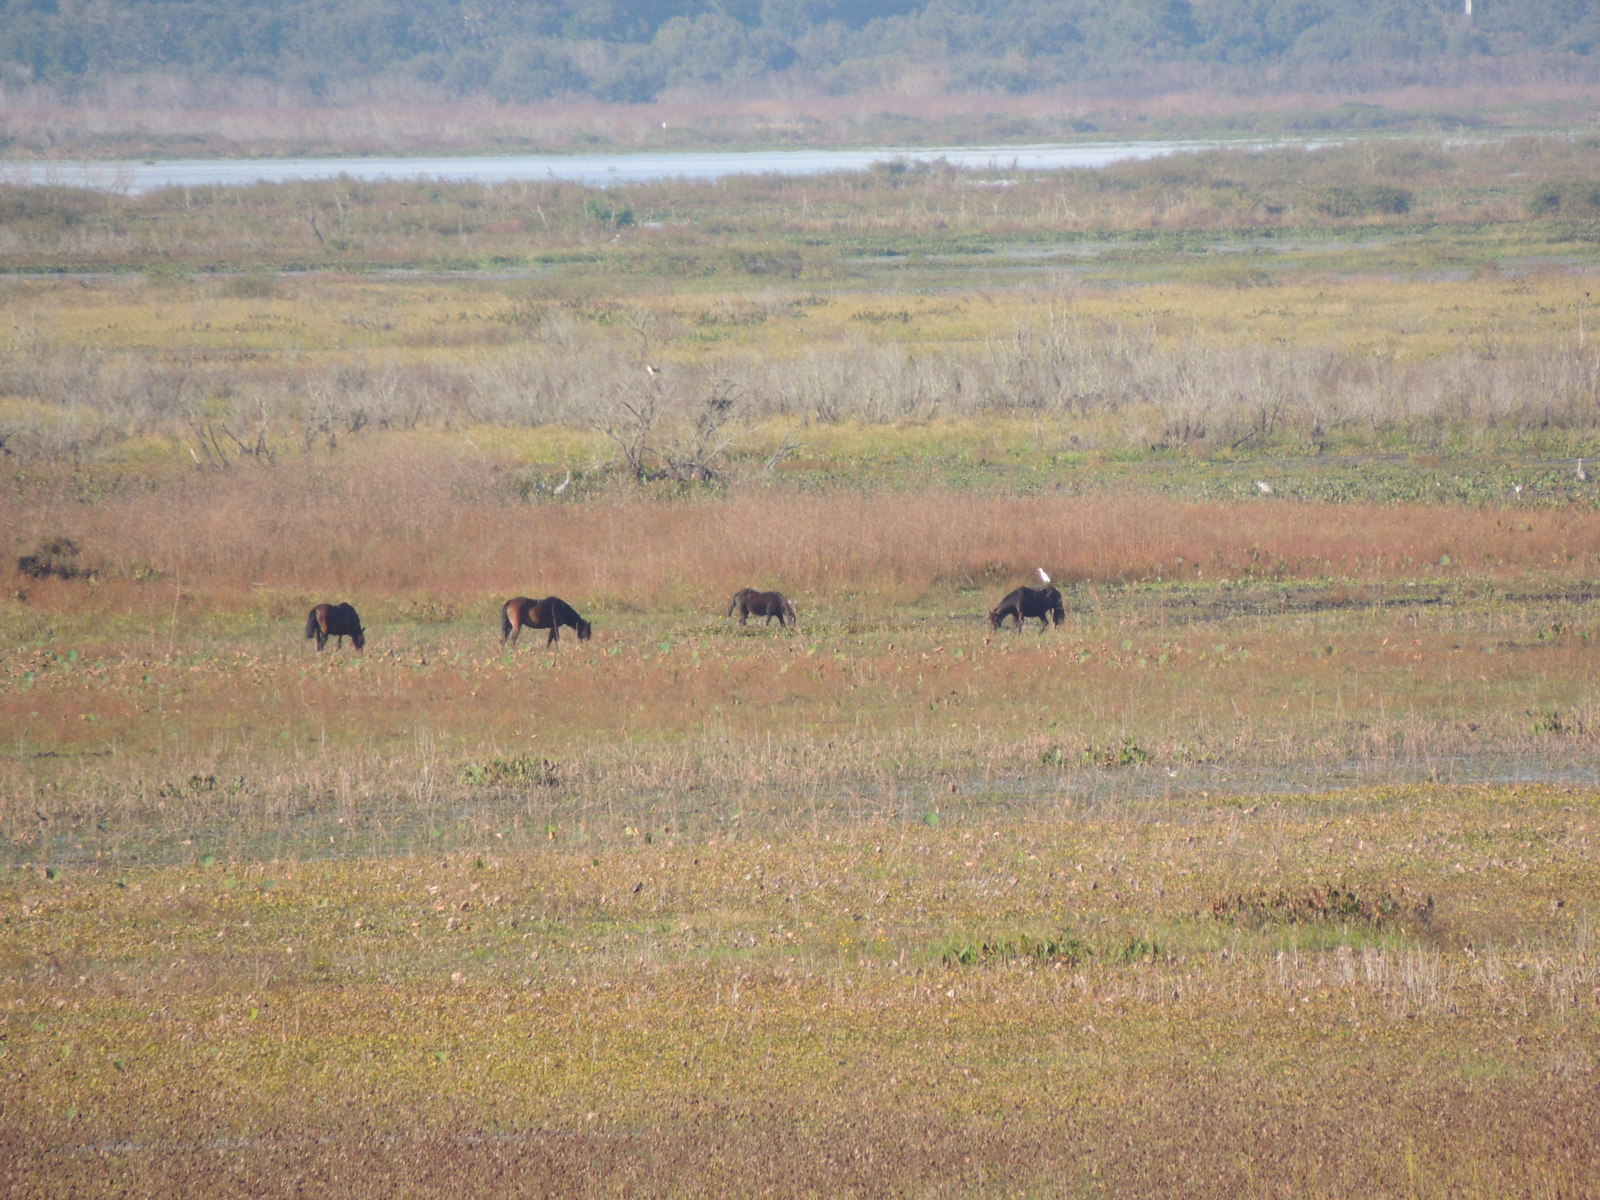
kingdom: Animalia
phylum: Chordata
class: Mammalia
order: Perissodactyla
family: Equidae
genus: Equus
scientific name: Equus caballus
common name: Horse
